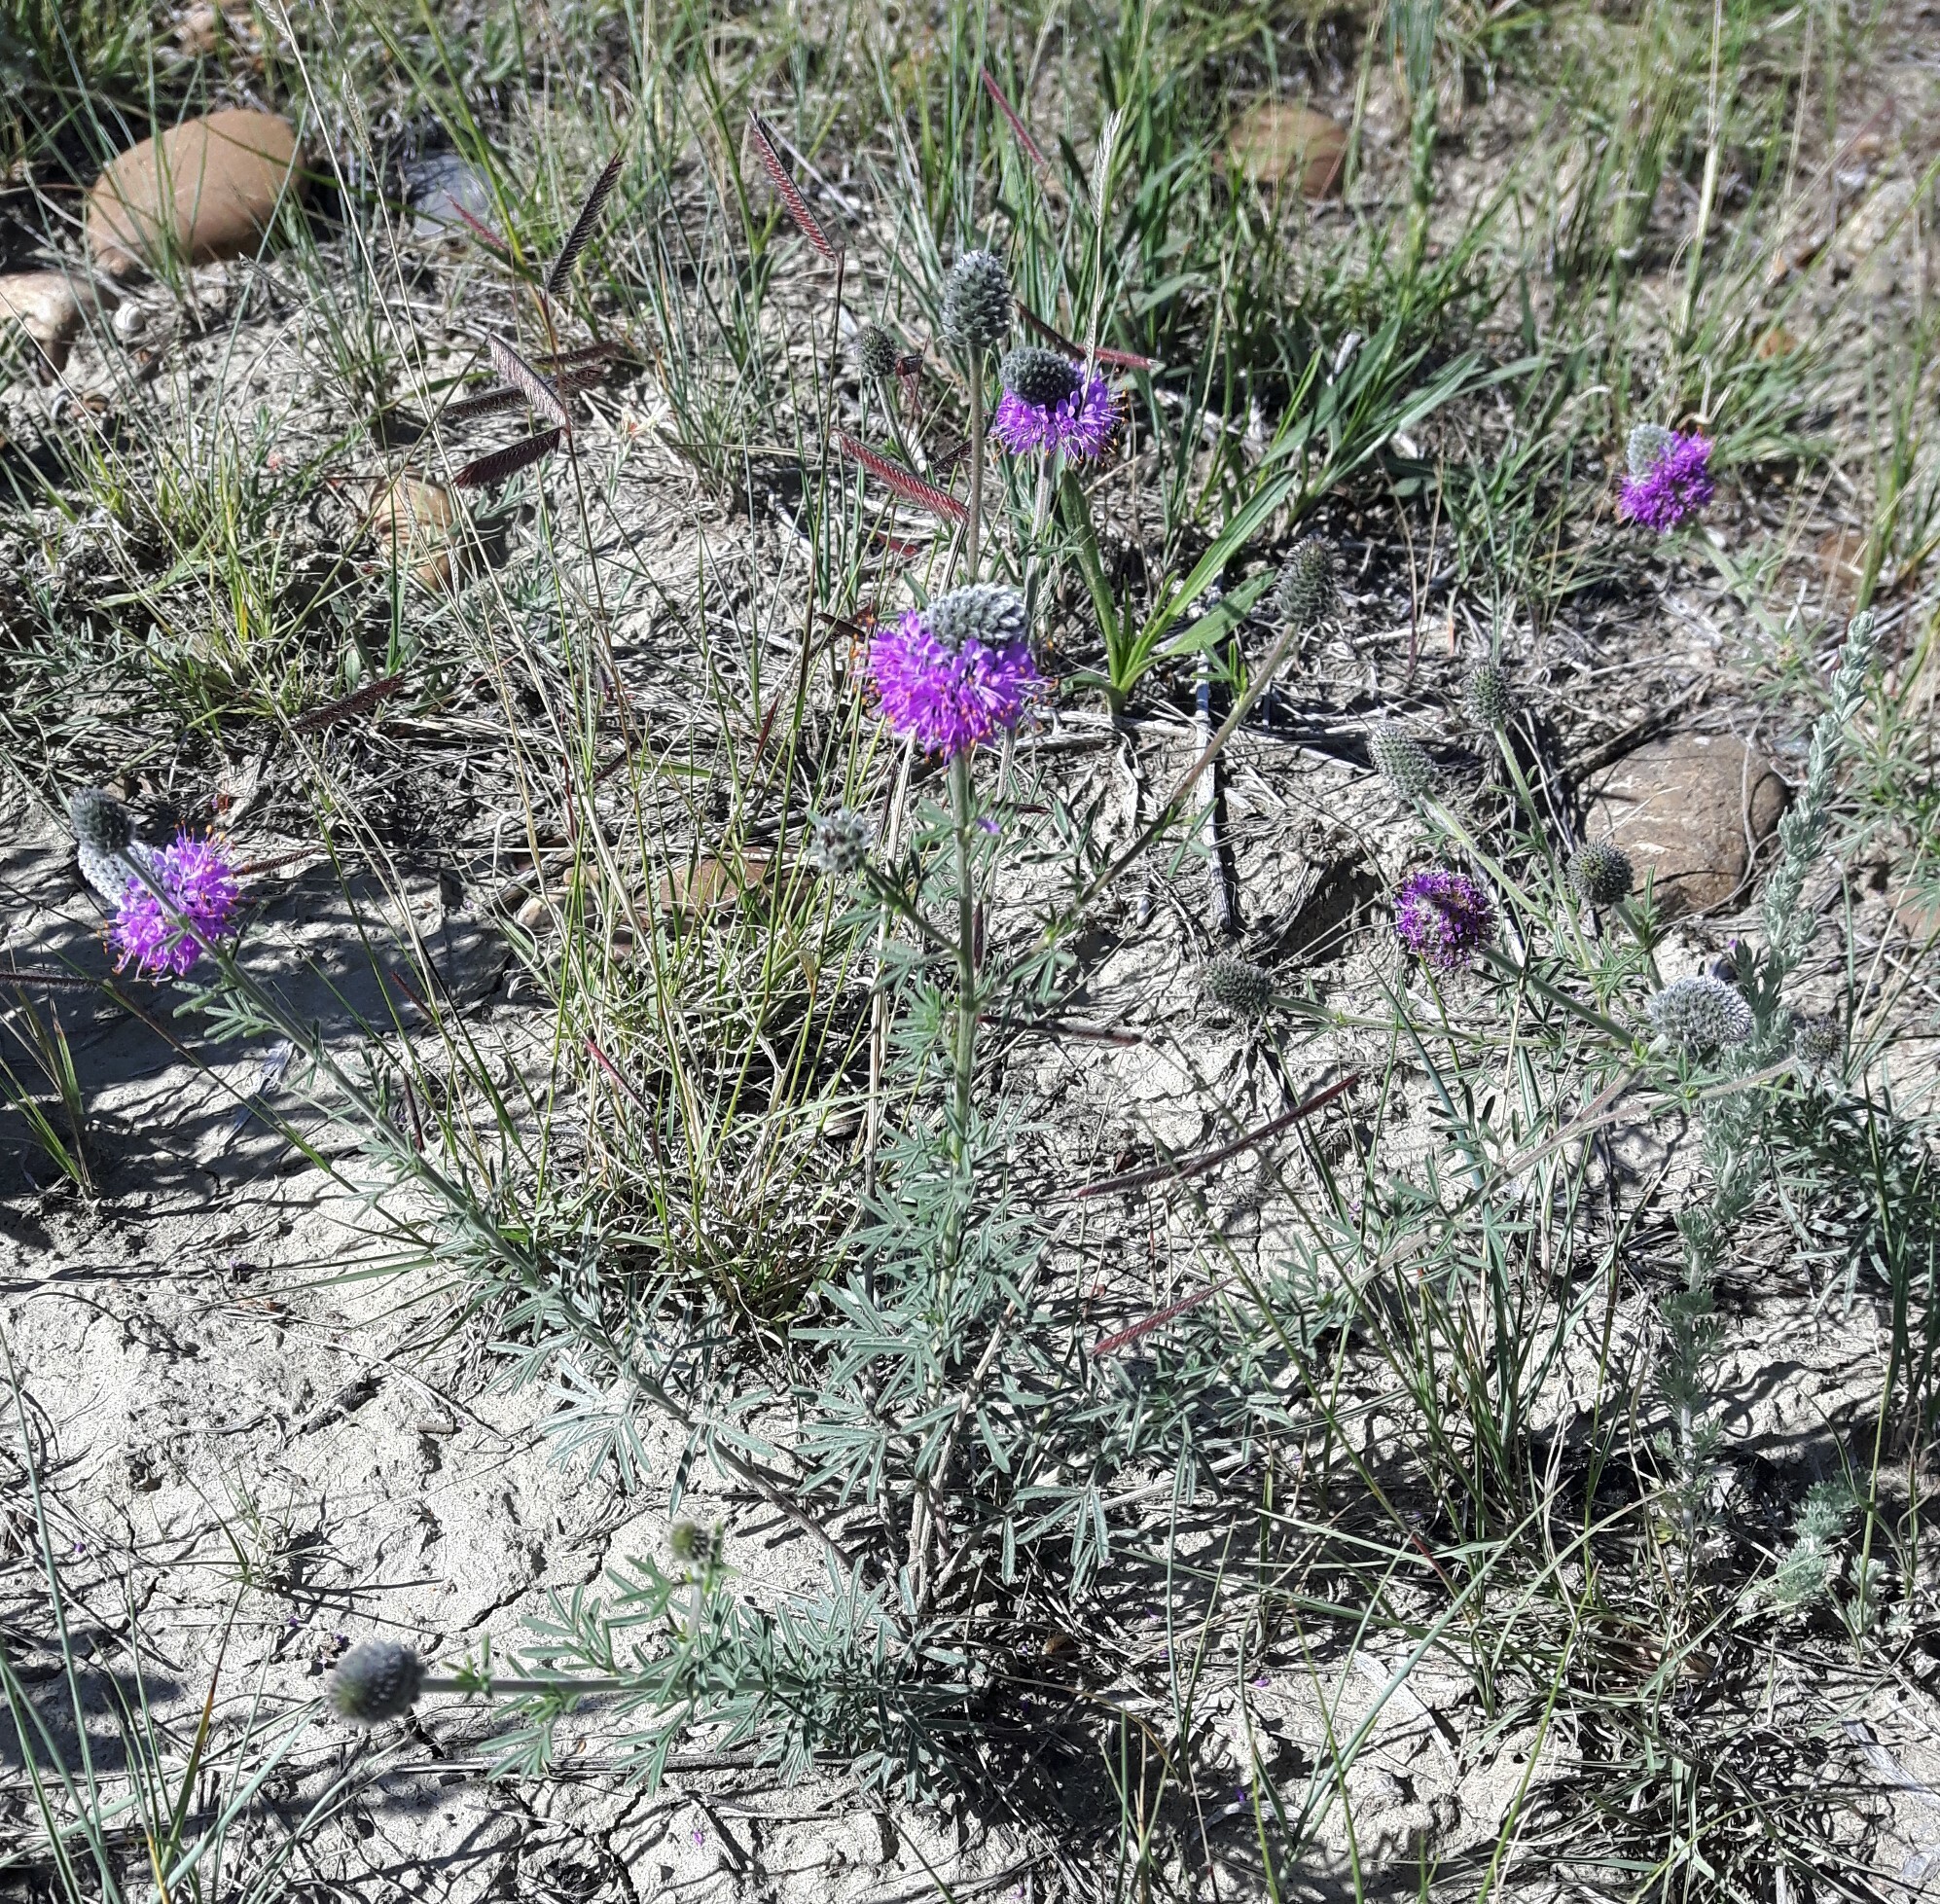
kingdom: Plantae
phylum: Tracheophyta
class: Magnoliopsida
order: Fabales
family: Fabaceae
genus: Dalea
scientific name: Dalea purpurea
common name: Purple prairie-clover
